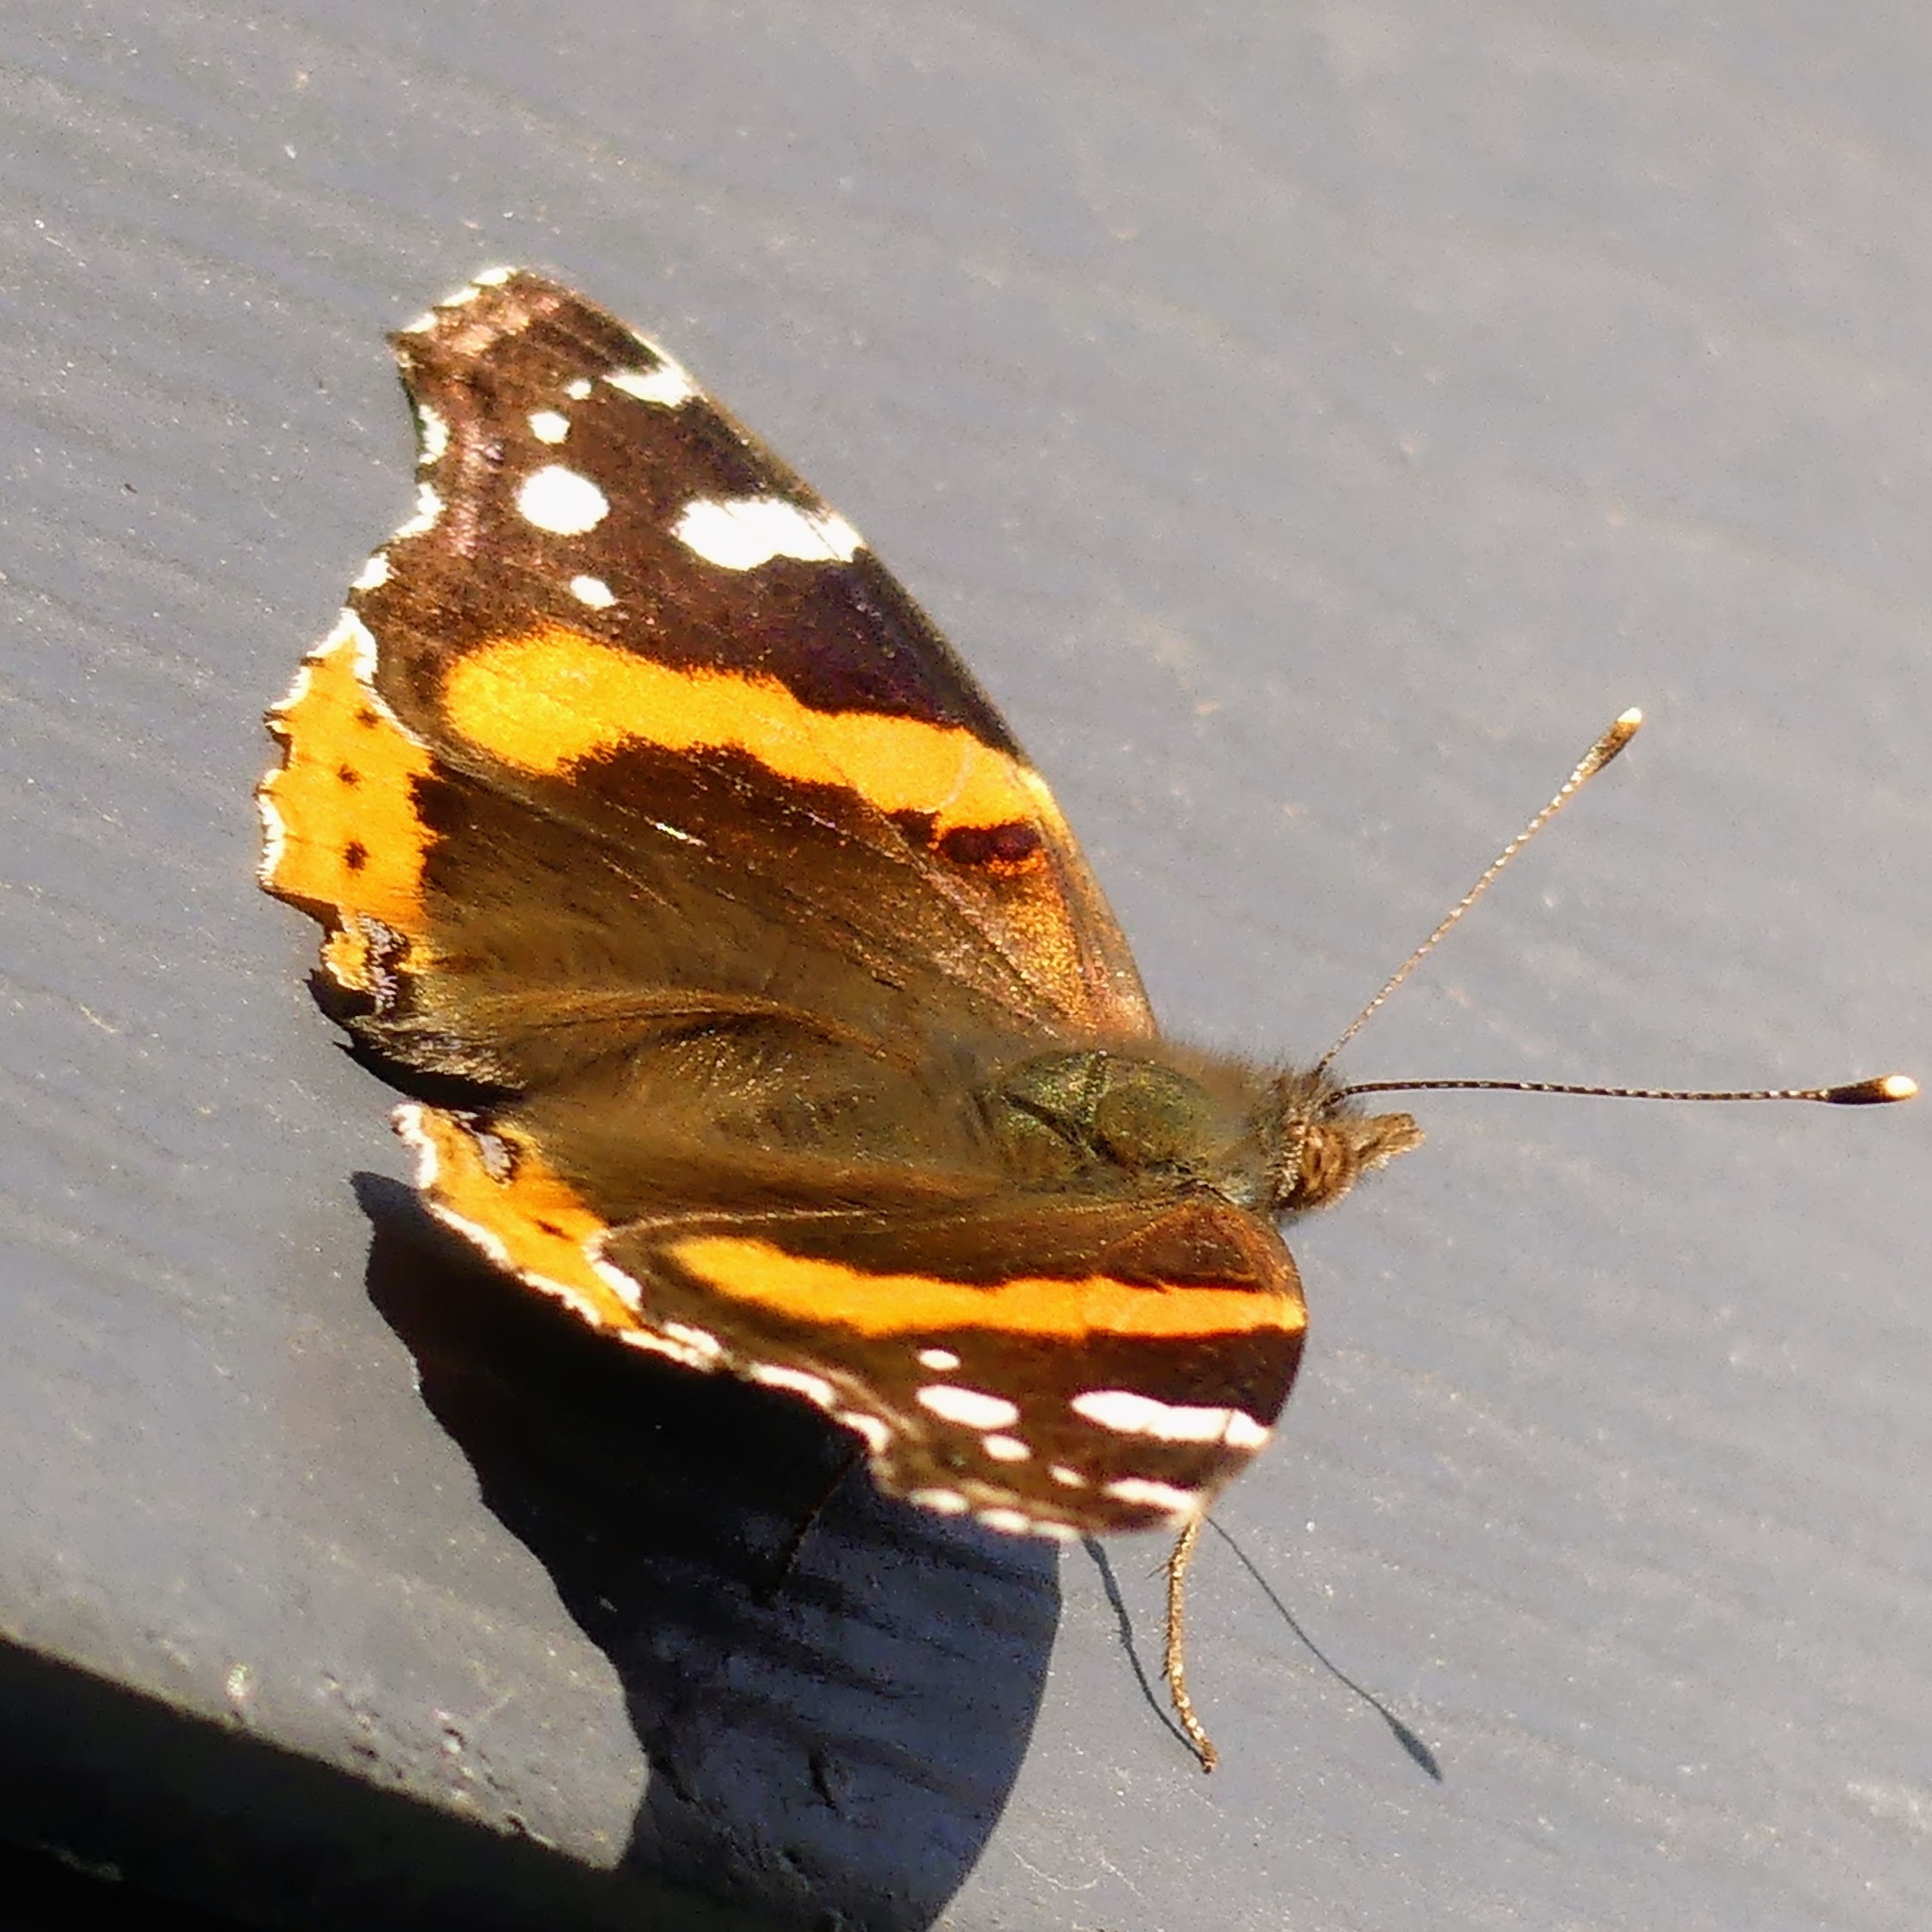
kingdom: Animalia
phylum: Arthropoda
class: Insecta
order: Lepidoptera
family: Nymphalidae
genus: Vanessa
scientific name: Vanessa atalanta
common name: Red admiral
